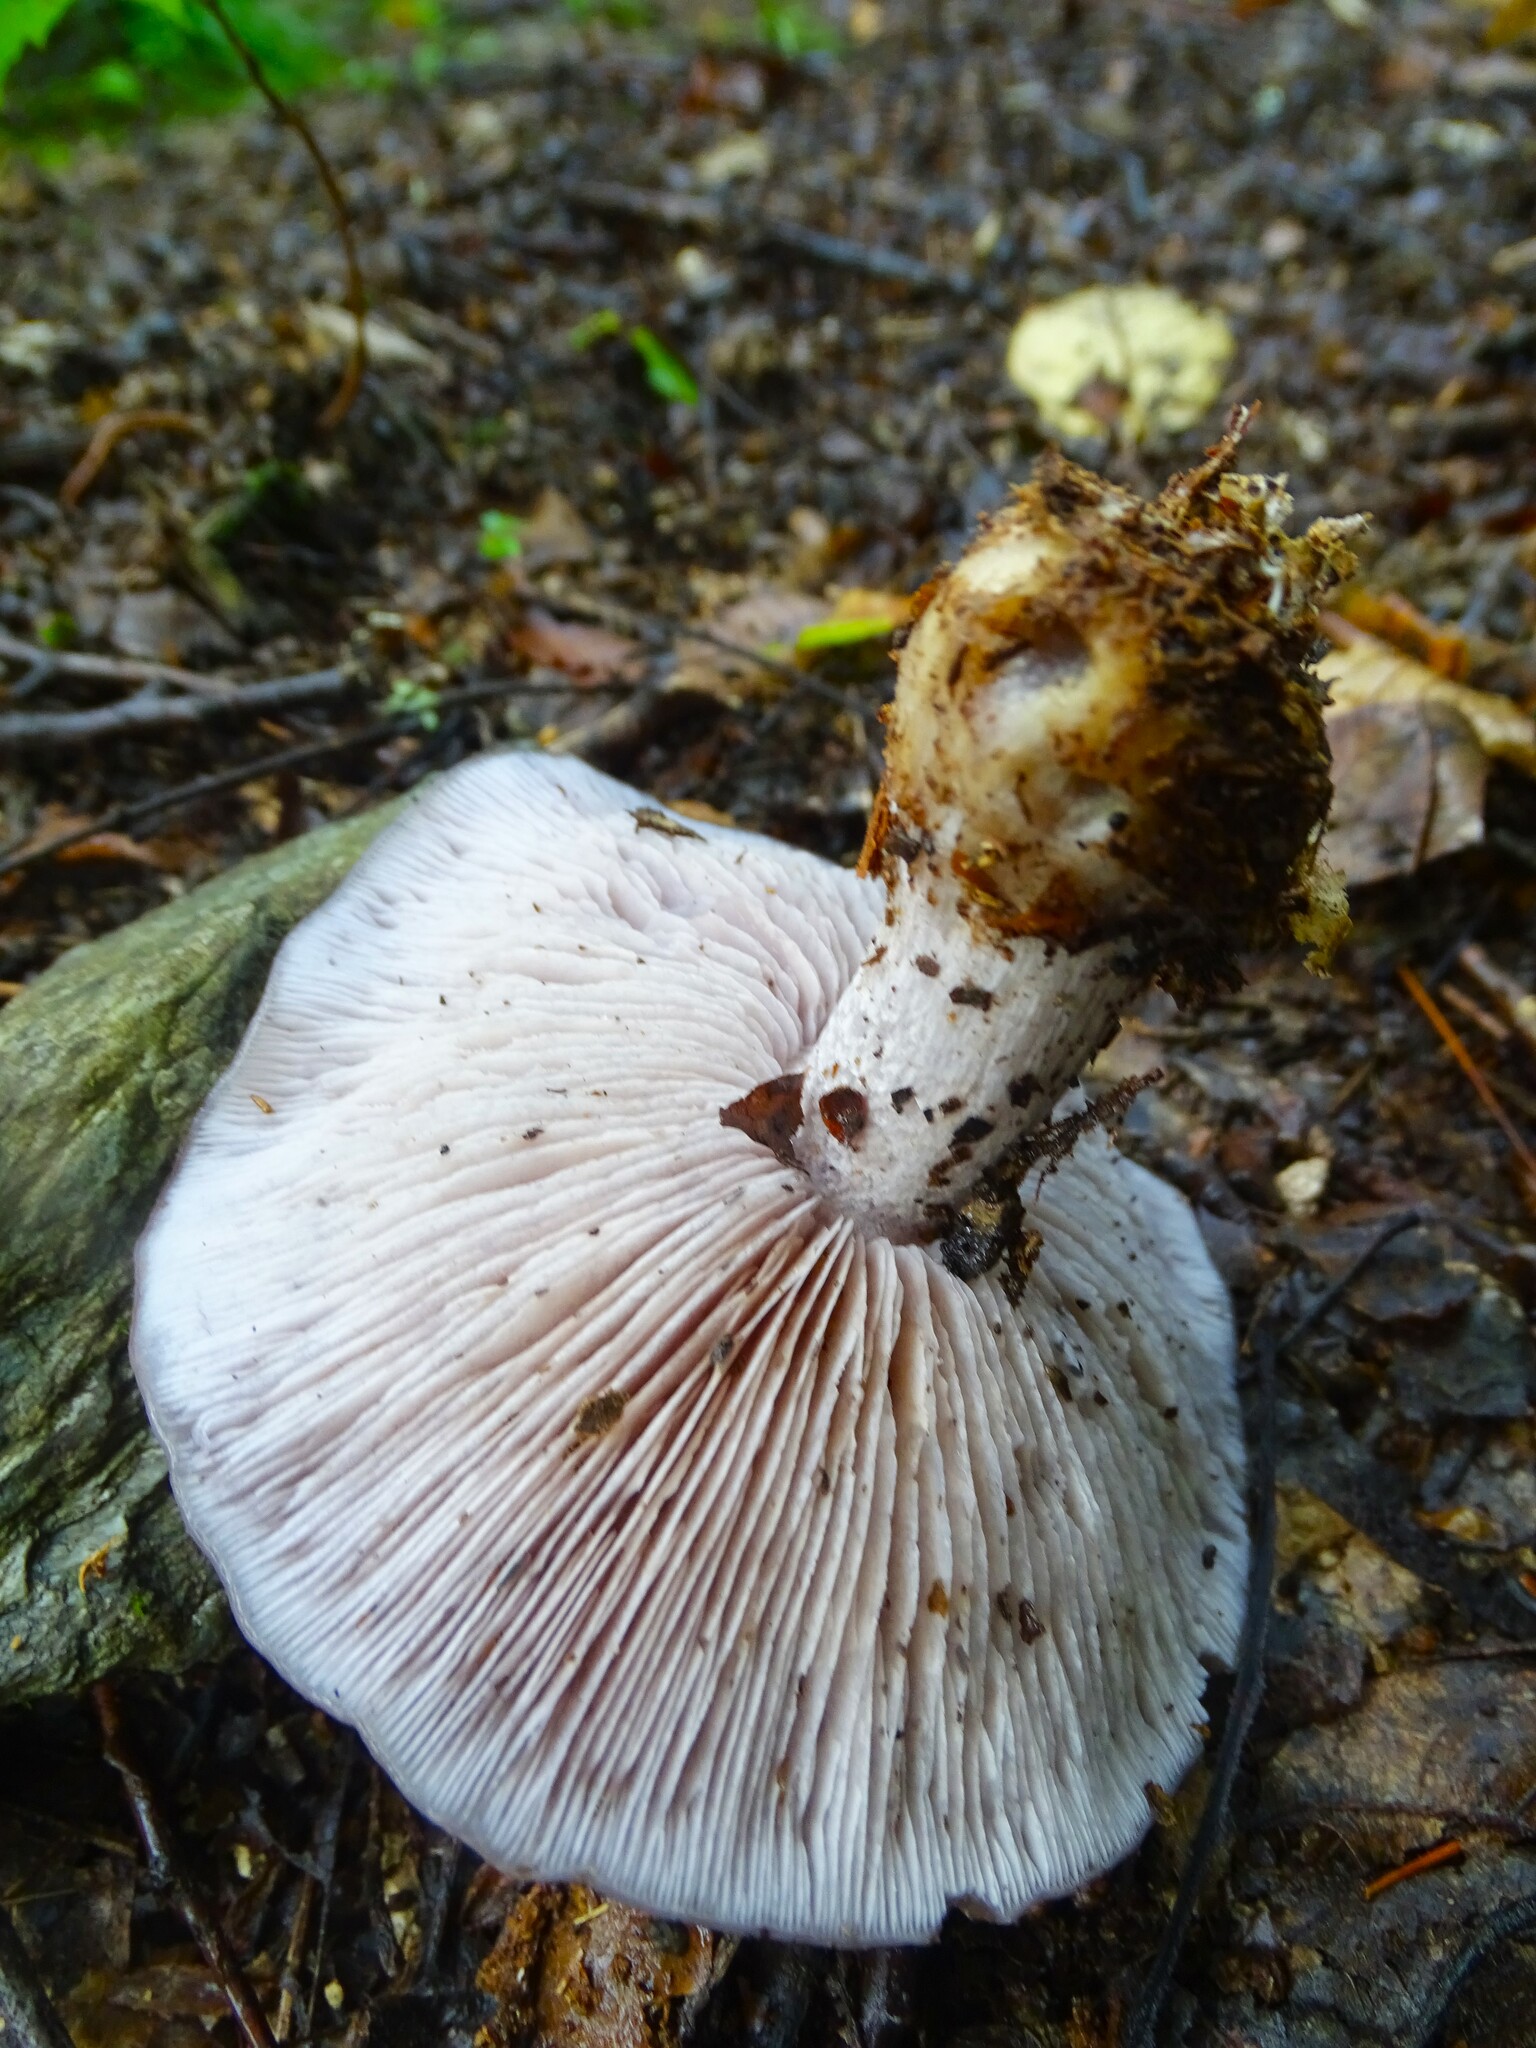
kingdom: Fungi
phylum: Basidiomycota
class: Agaricomycetes
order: Agaricales
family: Tricholomataceae
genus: Collybia
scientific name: Collybia
